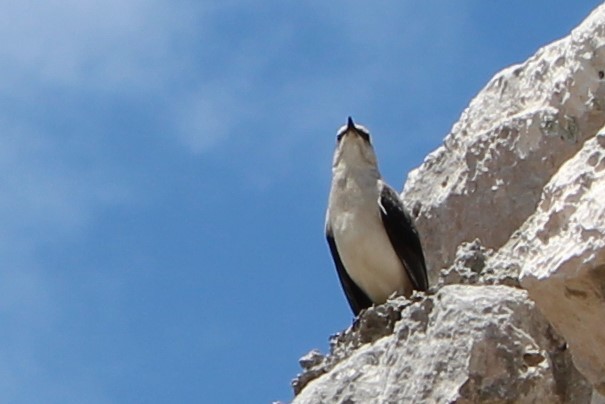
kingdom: Animalia
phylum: Chordata
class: Aves
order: Passeriformes
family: Mimidae
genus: Mimus
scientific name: Mimus gilvus
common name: Tropical mockingbird
